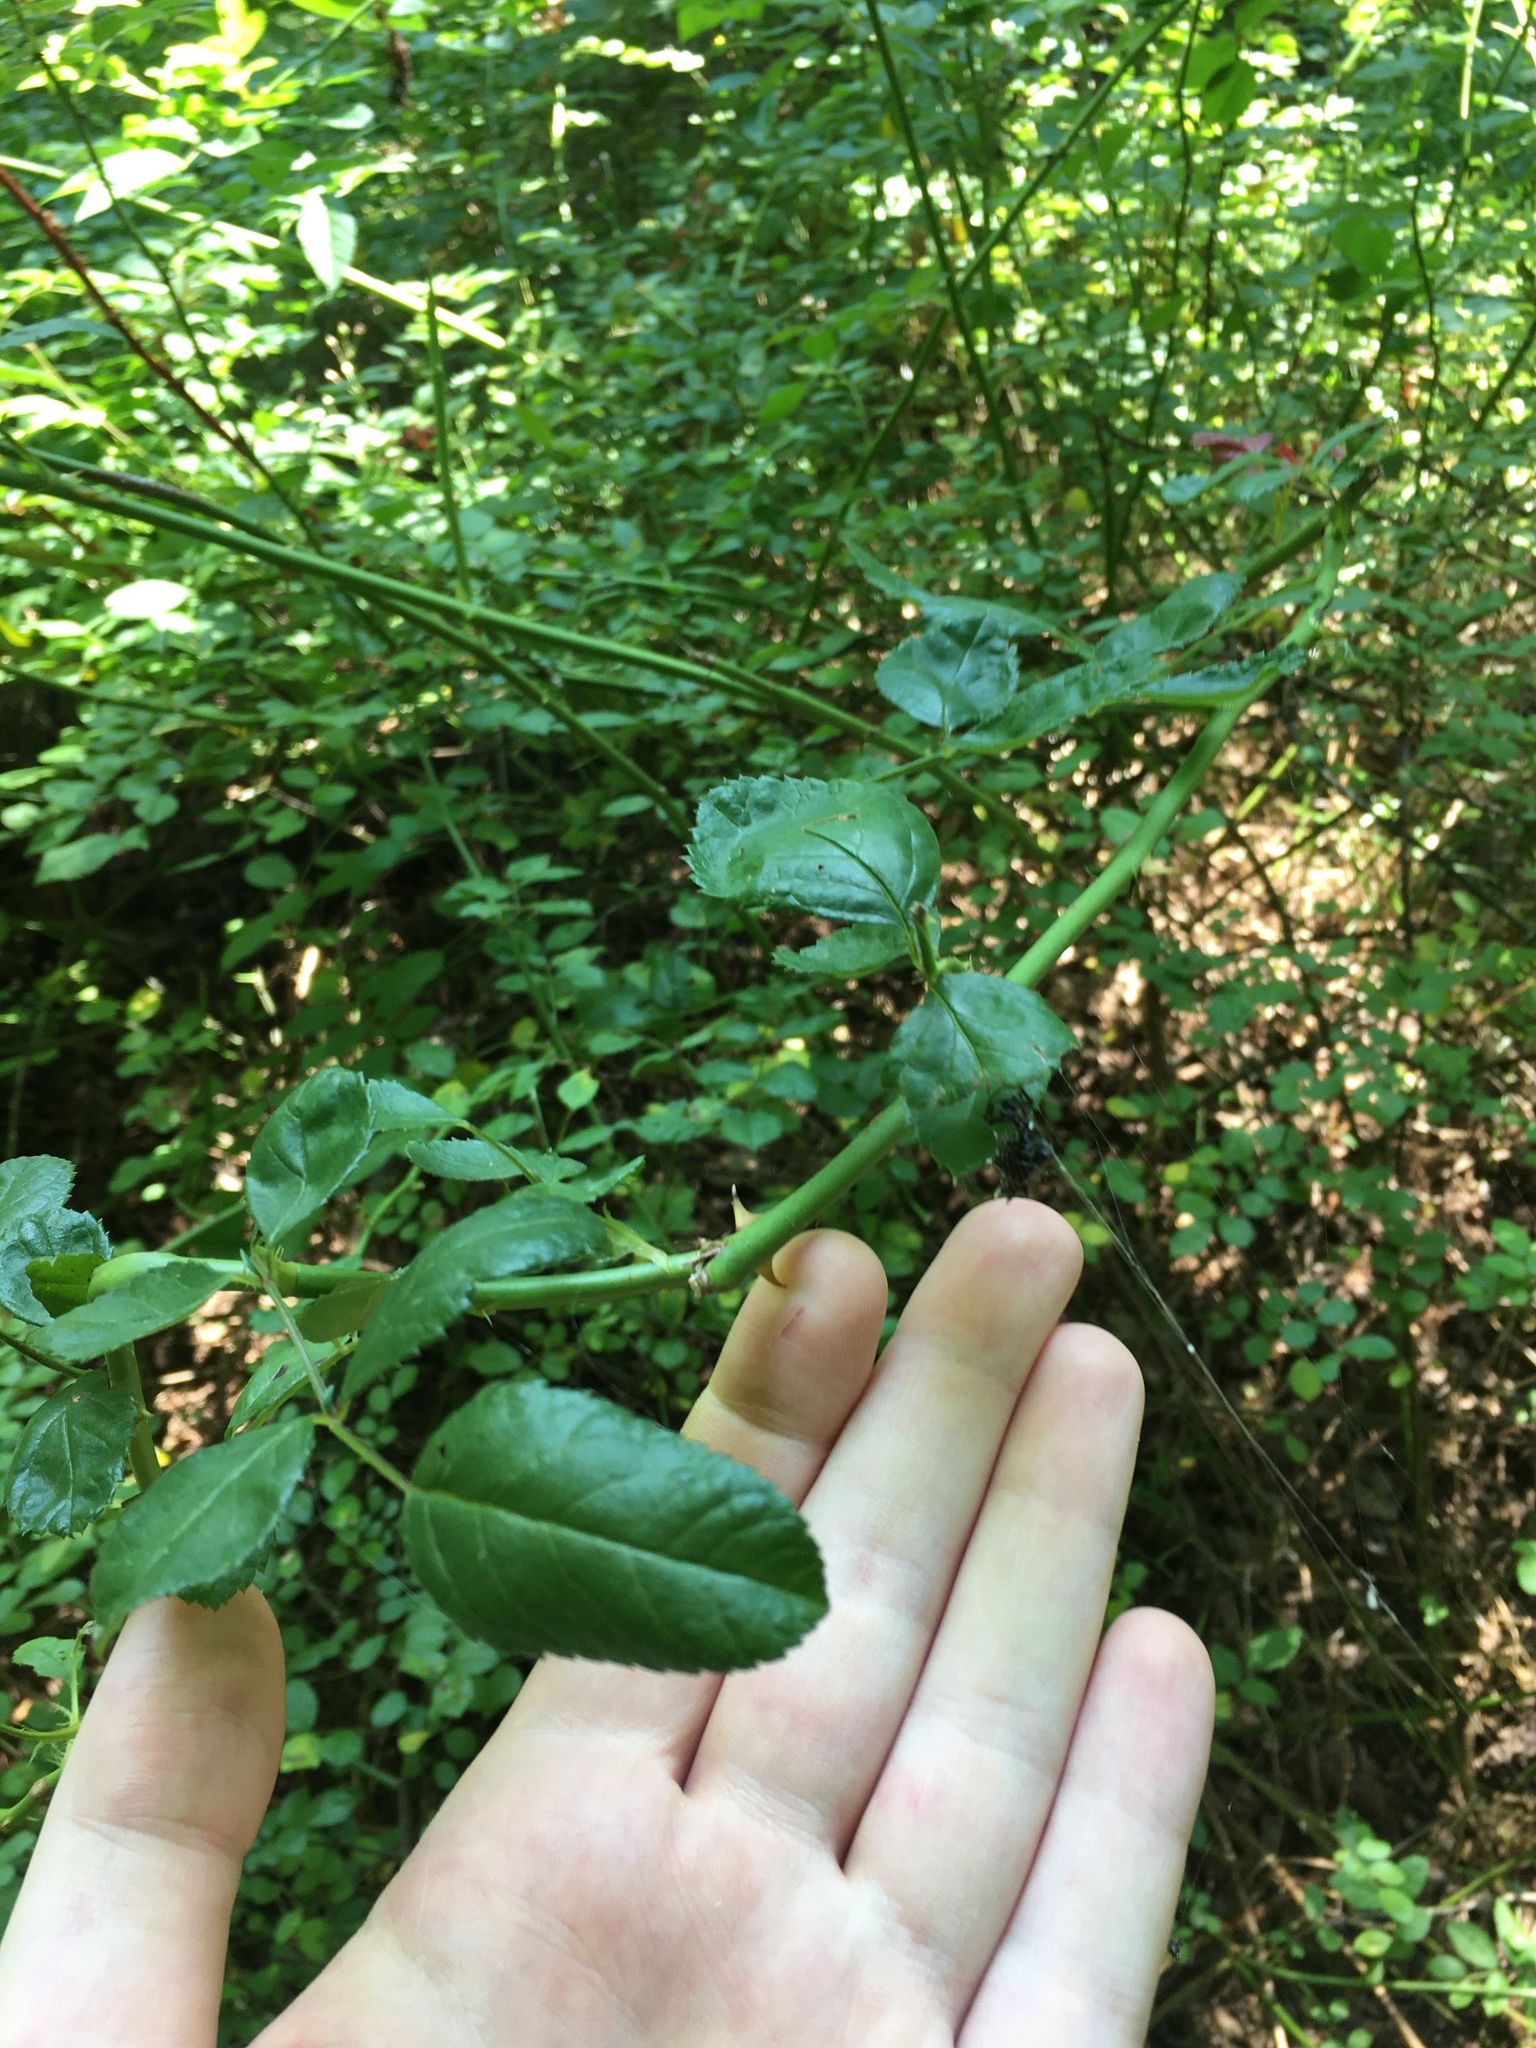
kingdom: Animalia
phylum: Arthropoda
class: Arachnida
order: Araneae
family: Araneidae
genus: Micrathena
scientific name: Micrathena gracilis
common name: Orb weavers
